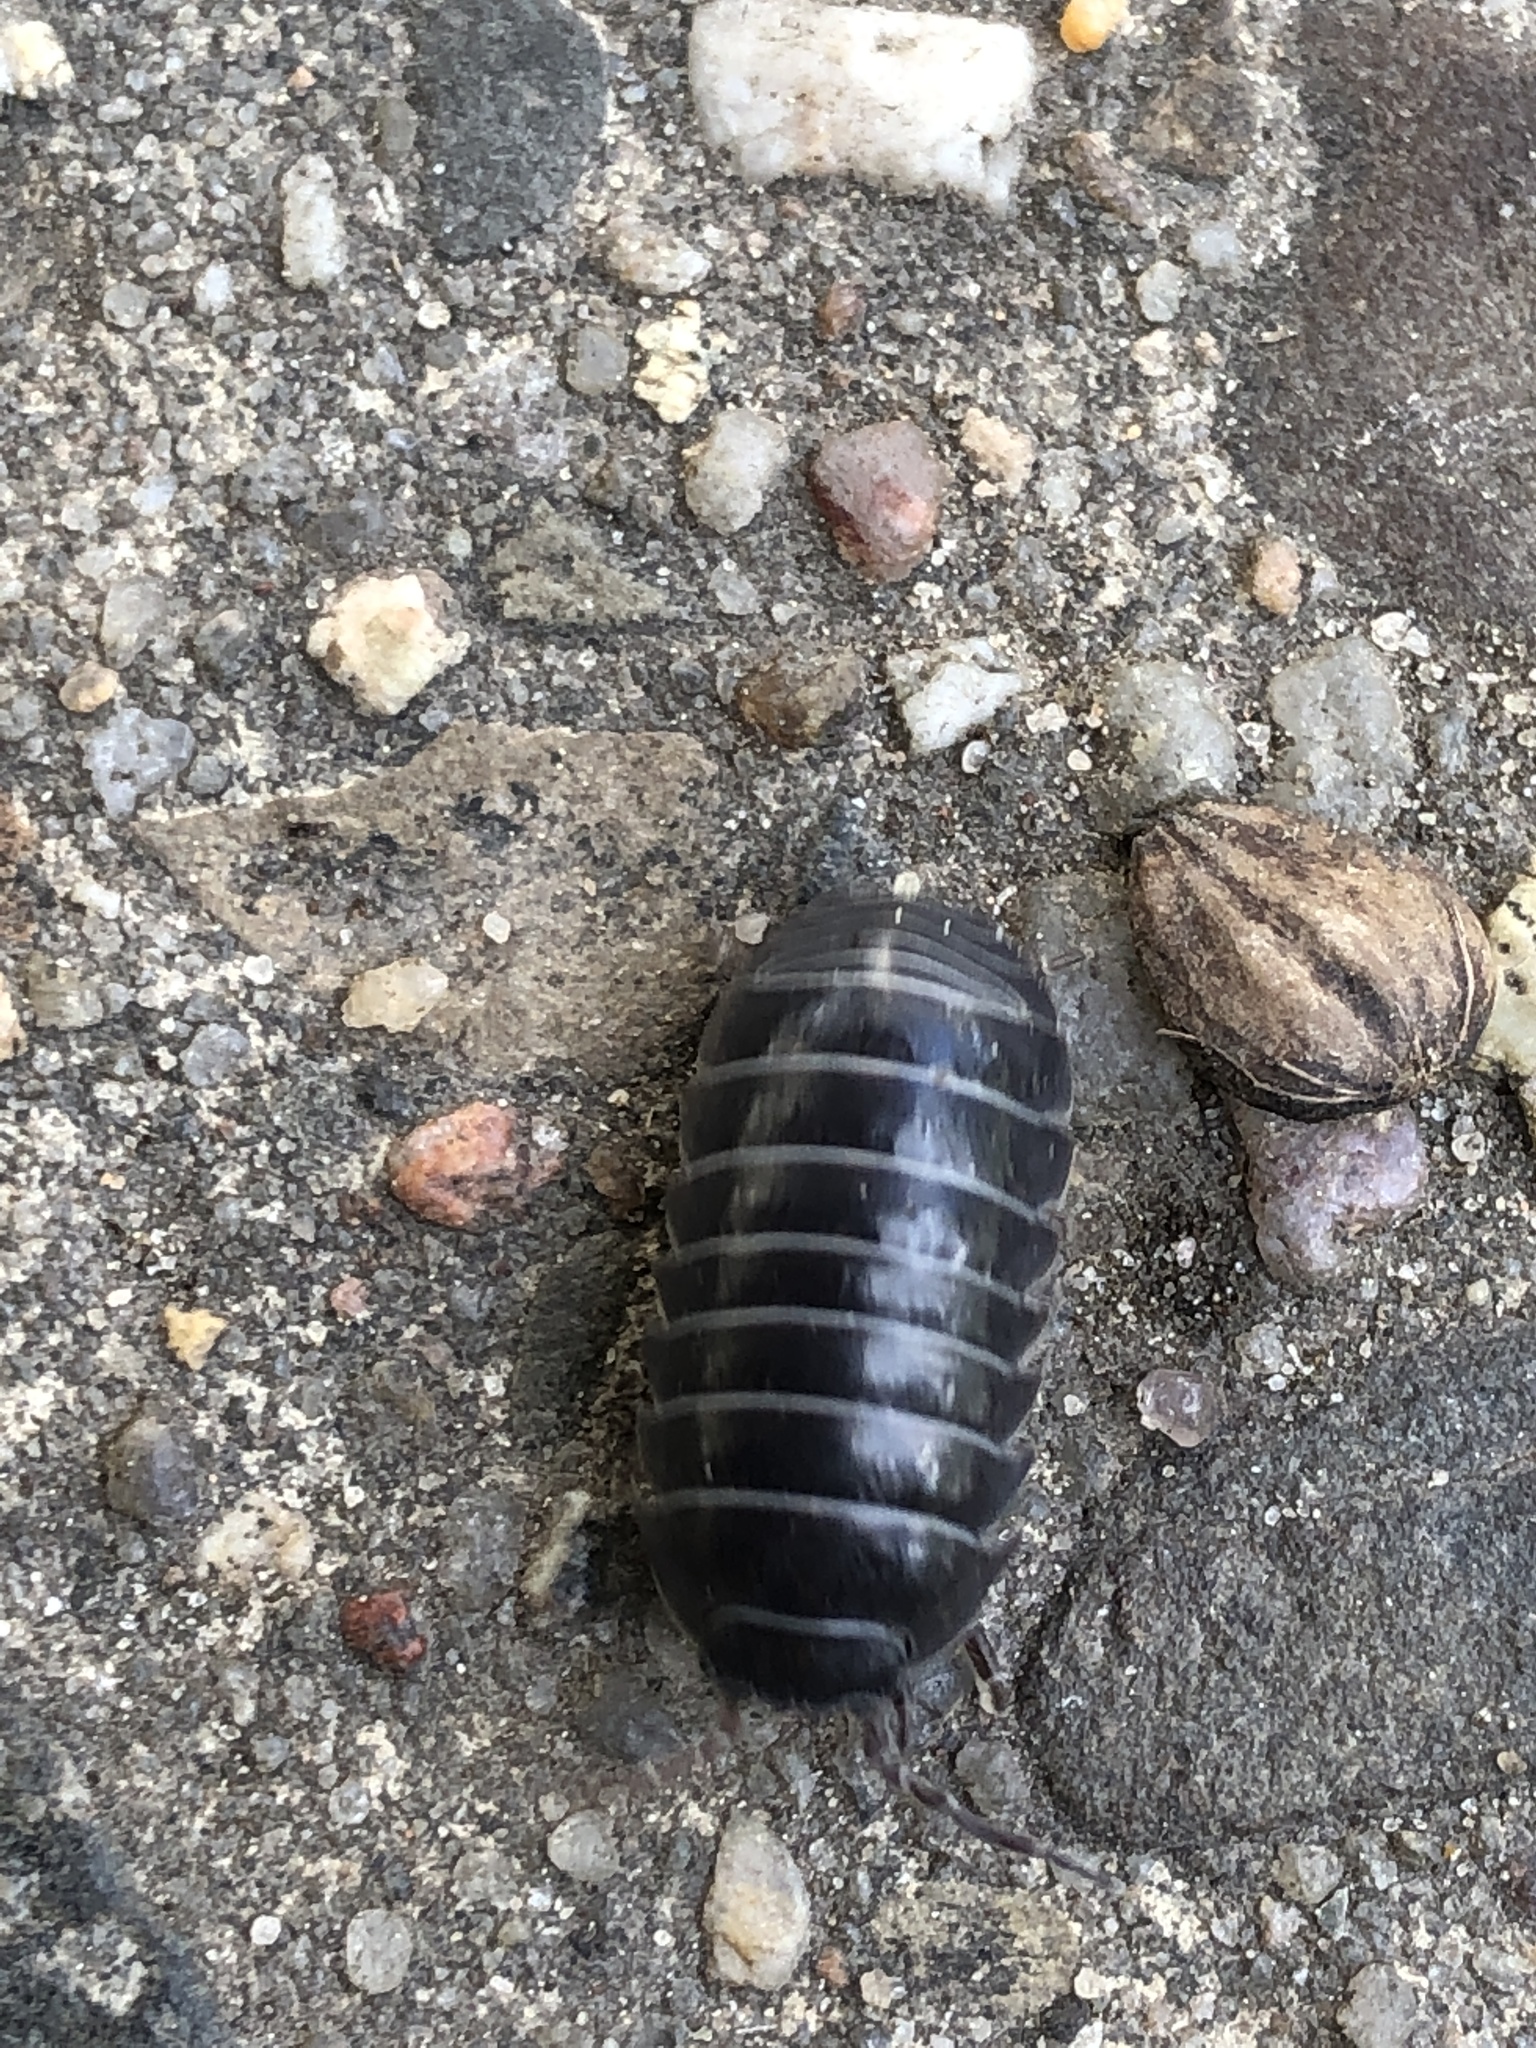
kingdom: Animalia
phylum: Arthropoda
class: Malacostraca
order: Isopoda
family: Armadillidiidae
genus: Armadillidium
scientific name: Armadillidium vulgare
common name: Common pill woodlouse
